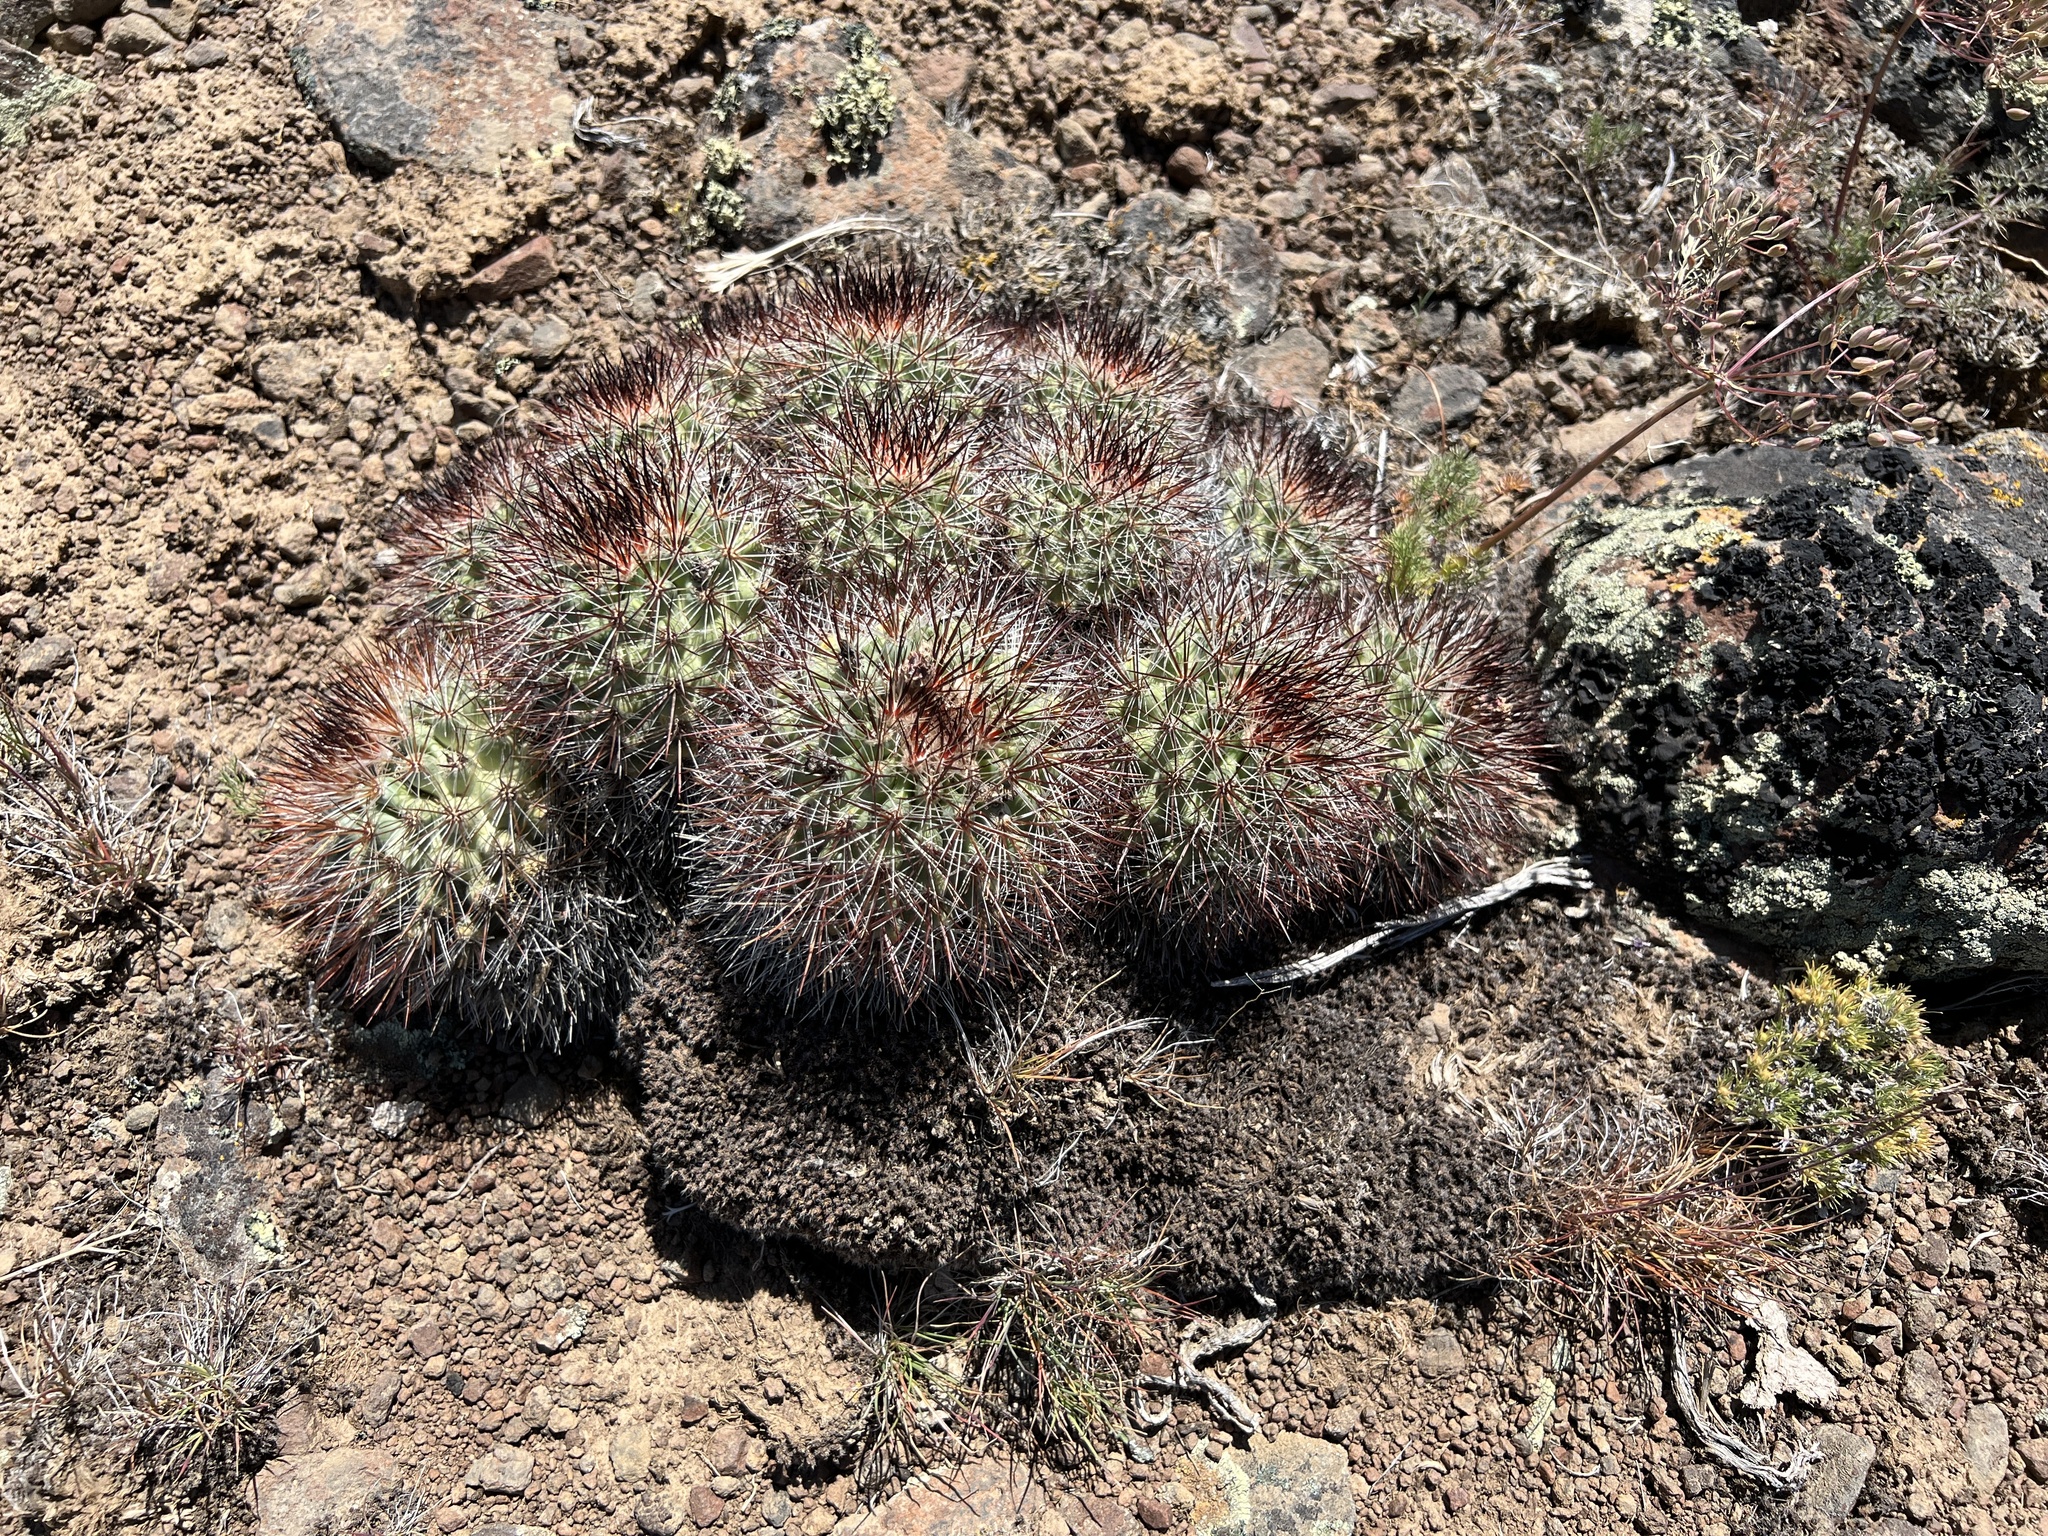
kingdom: Plantae
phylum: Tracheophyta
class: Magnoliopsida
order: Caryophyllales
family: Cactaceae
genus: Pediocactus
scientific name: Pediocactus nigrispinus
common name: Simpson's hedgehog cactus
